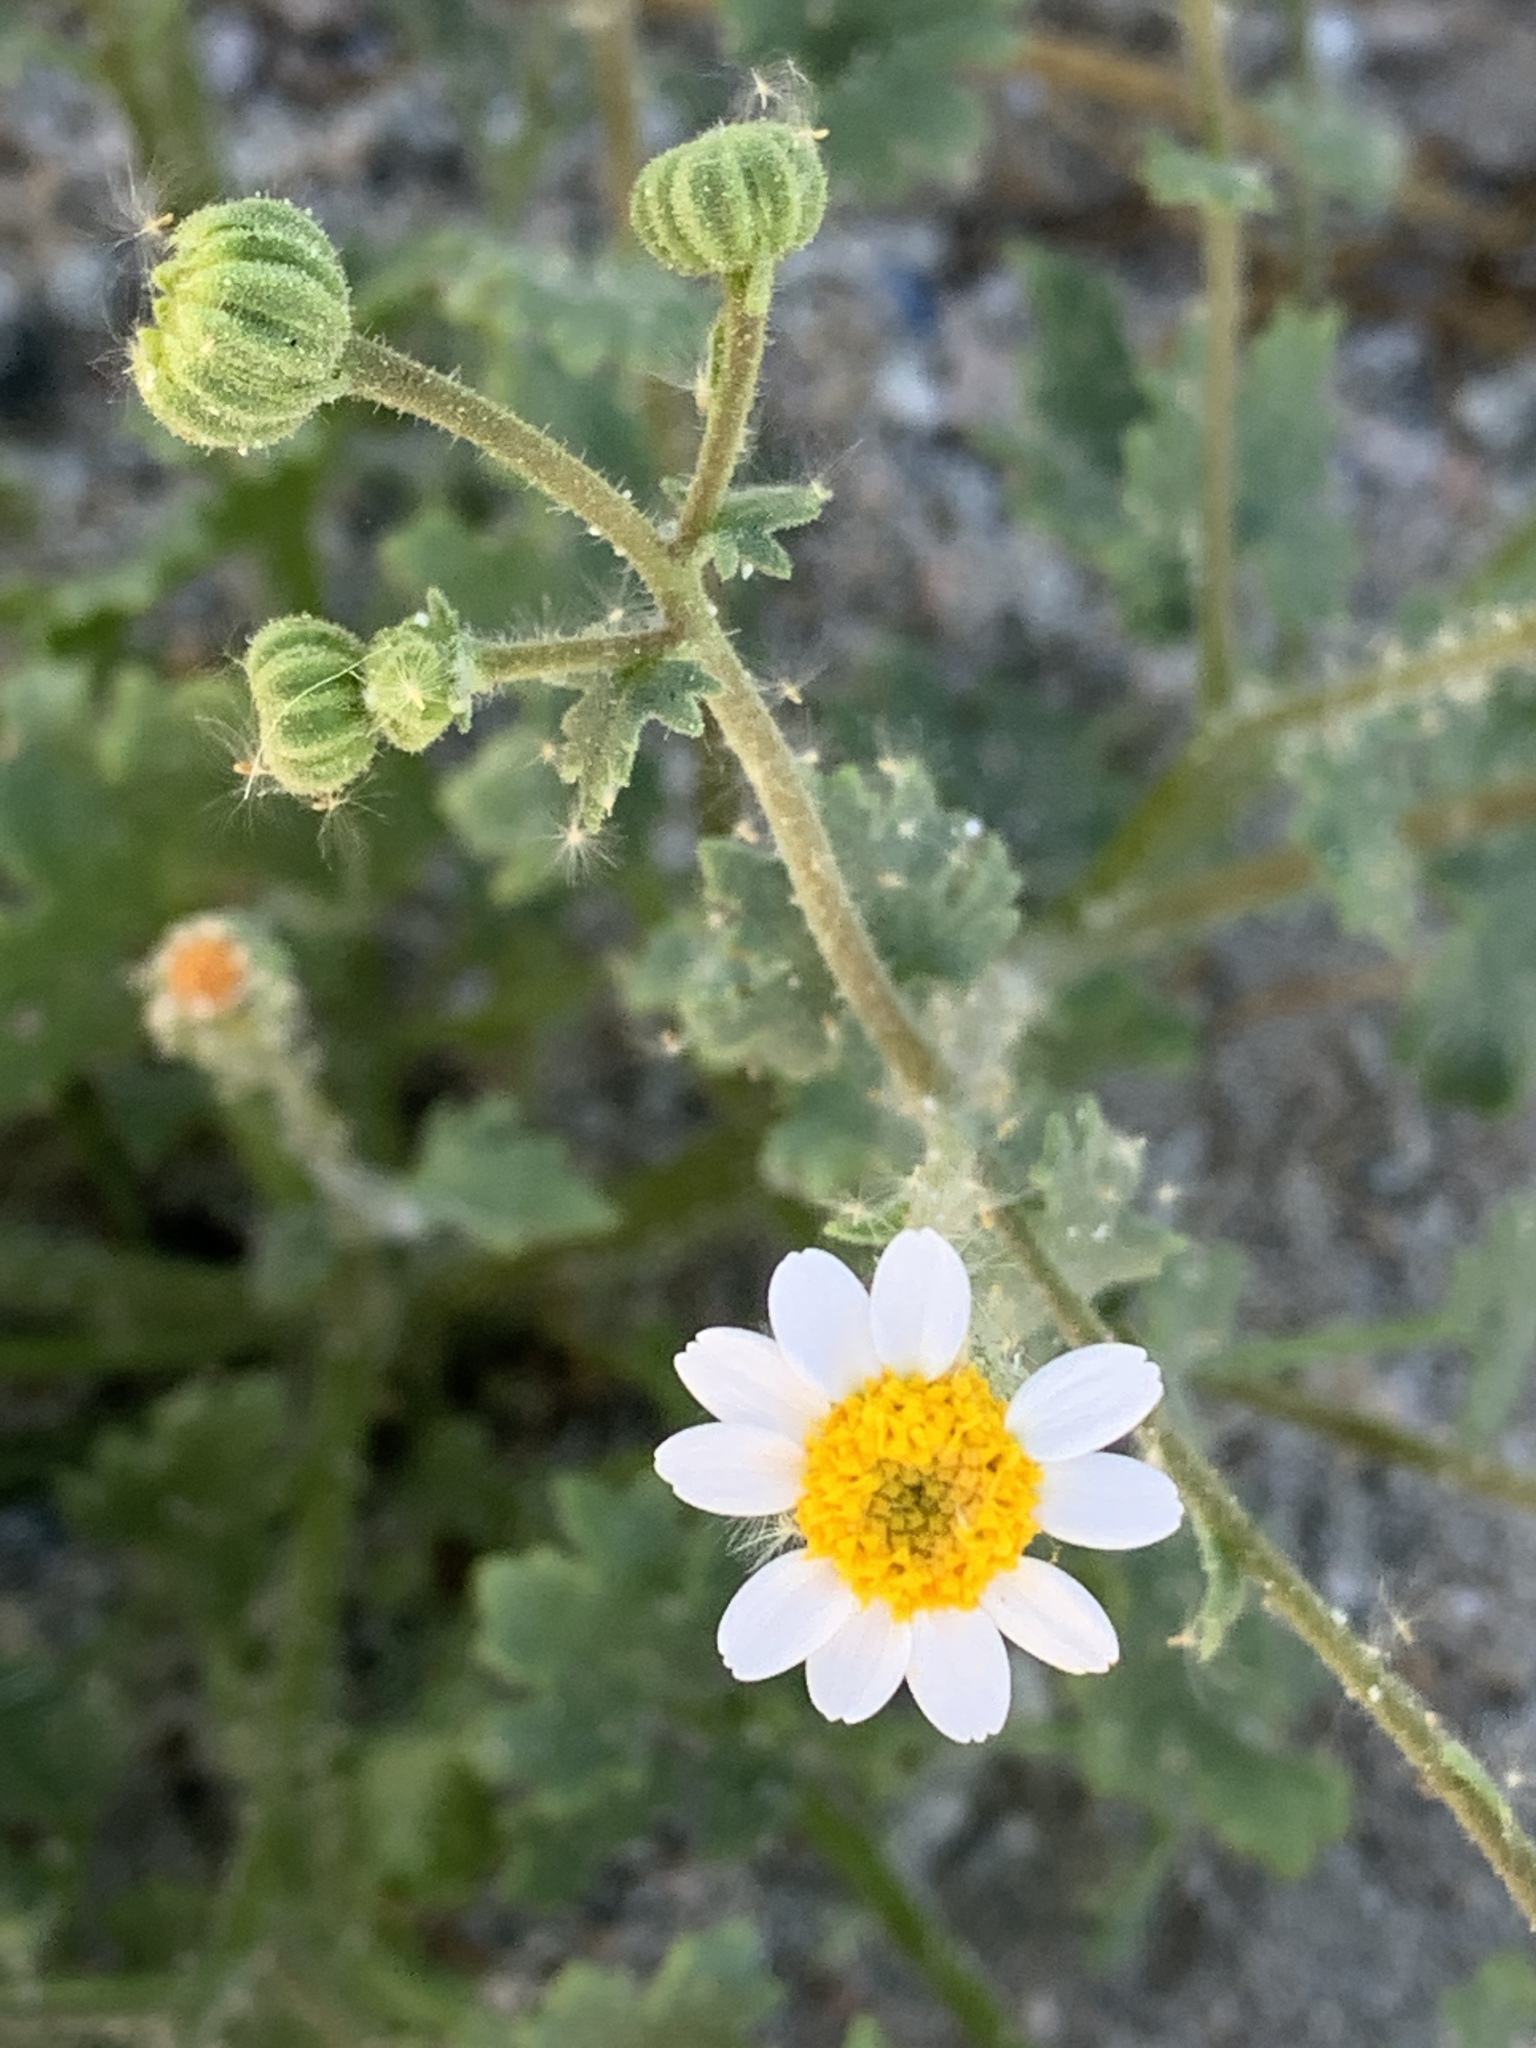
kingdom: Plantae
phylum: Tracheophyta
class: Magnoliopsida
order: Asterales
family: Asteraceae
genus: Laphamia
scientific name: Laphamia emoryi
